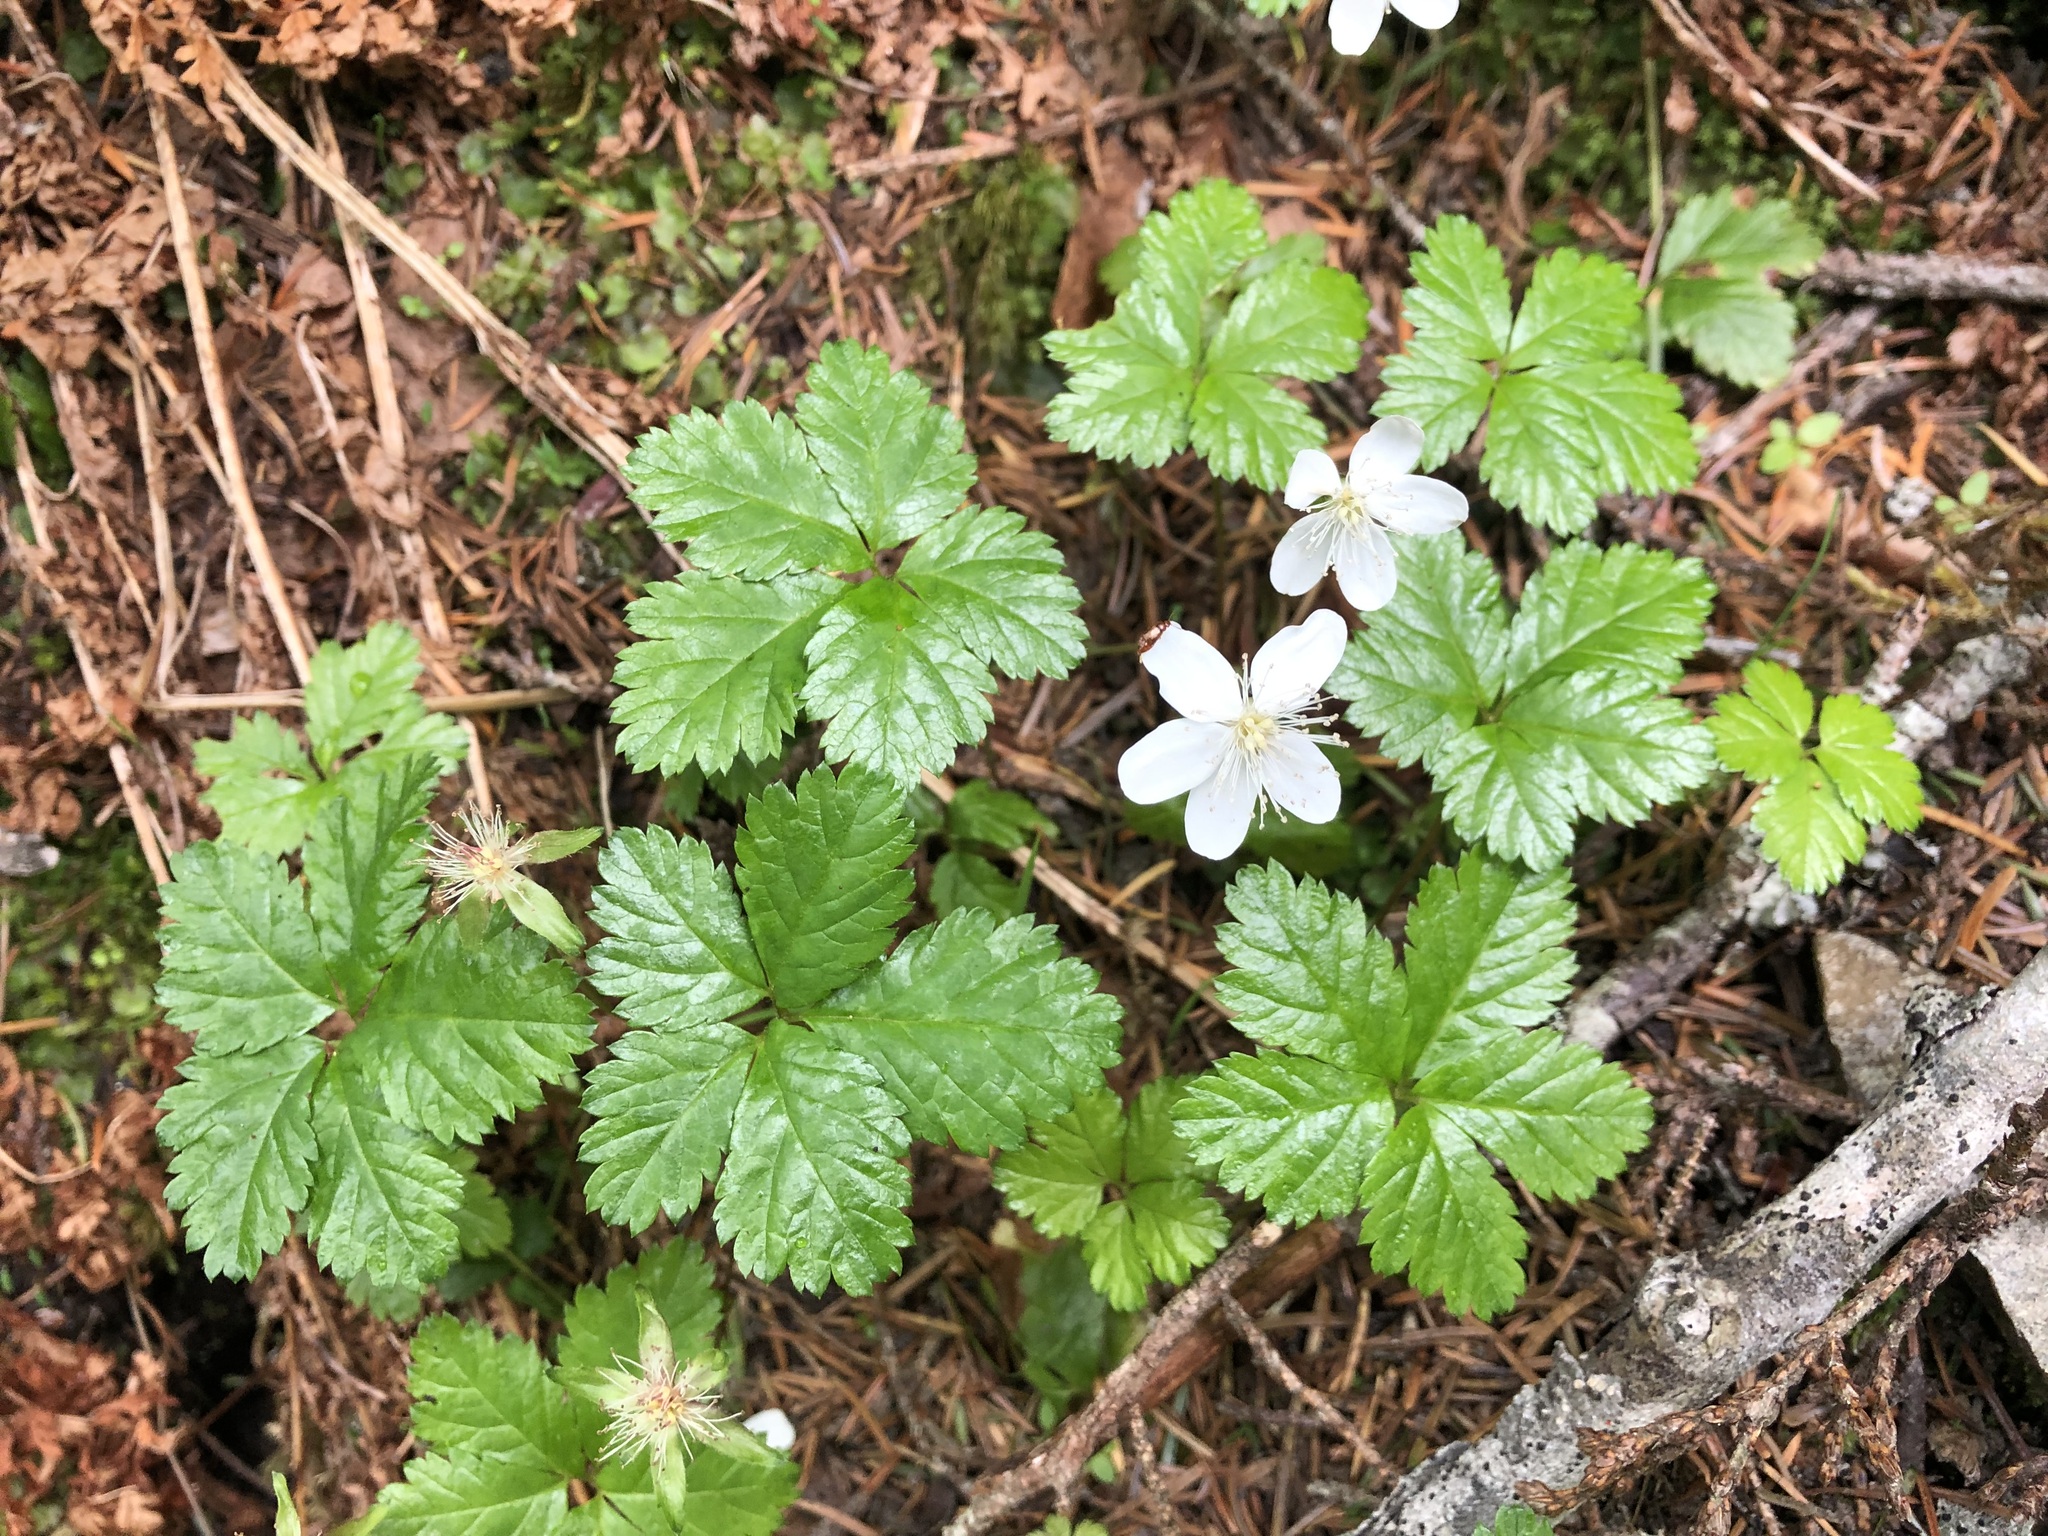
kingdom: Plantae
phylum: Tracheophyta
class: Magnoliopsida
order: Rosales
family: Rosaceae
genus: Rubus
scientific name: Rubus pedatus
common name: Creeping raspberry
